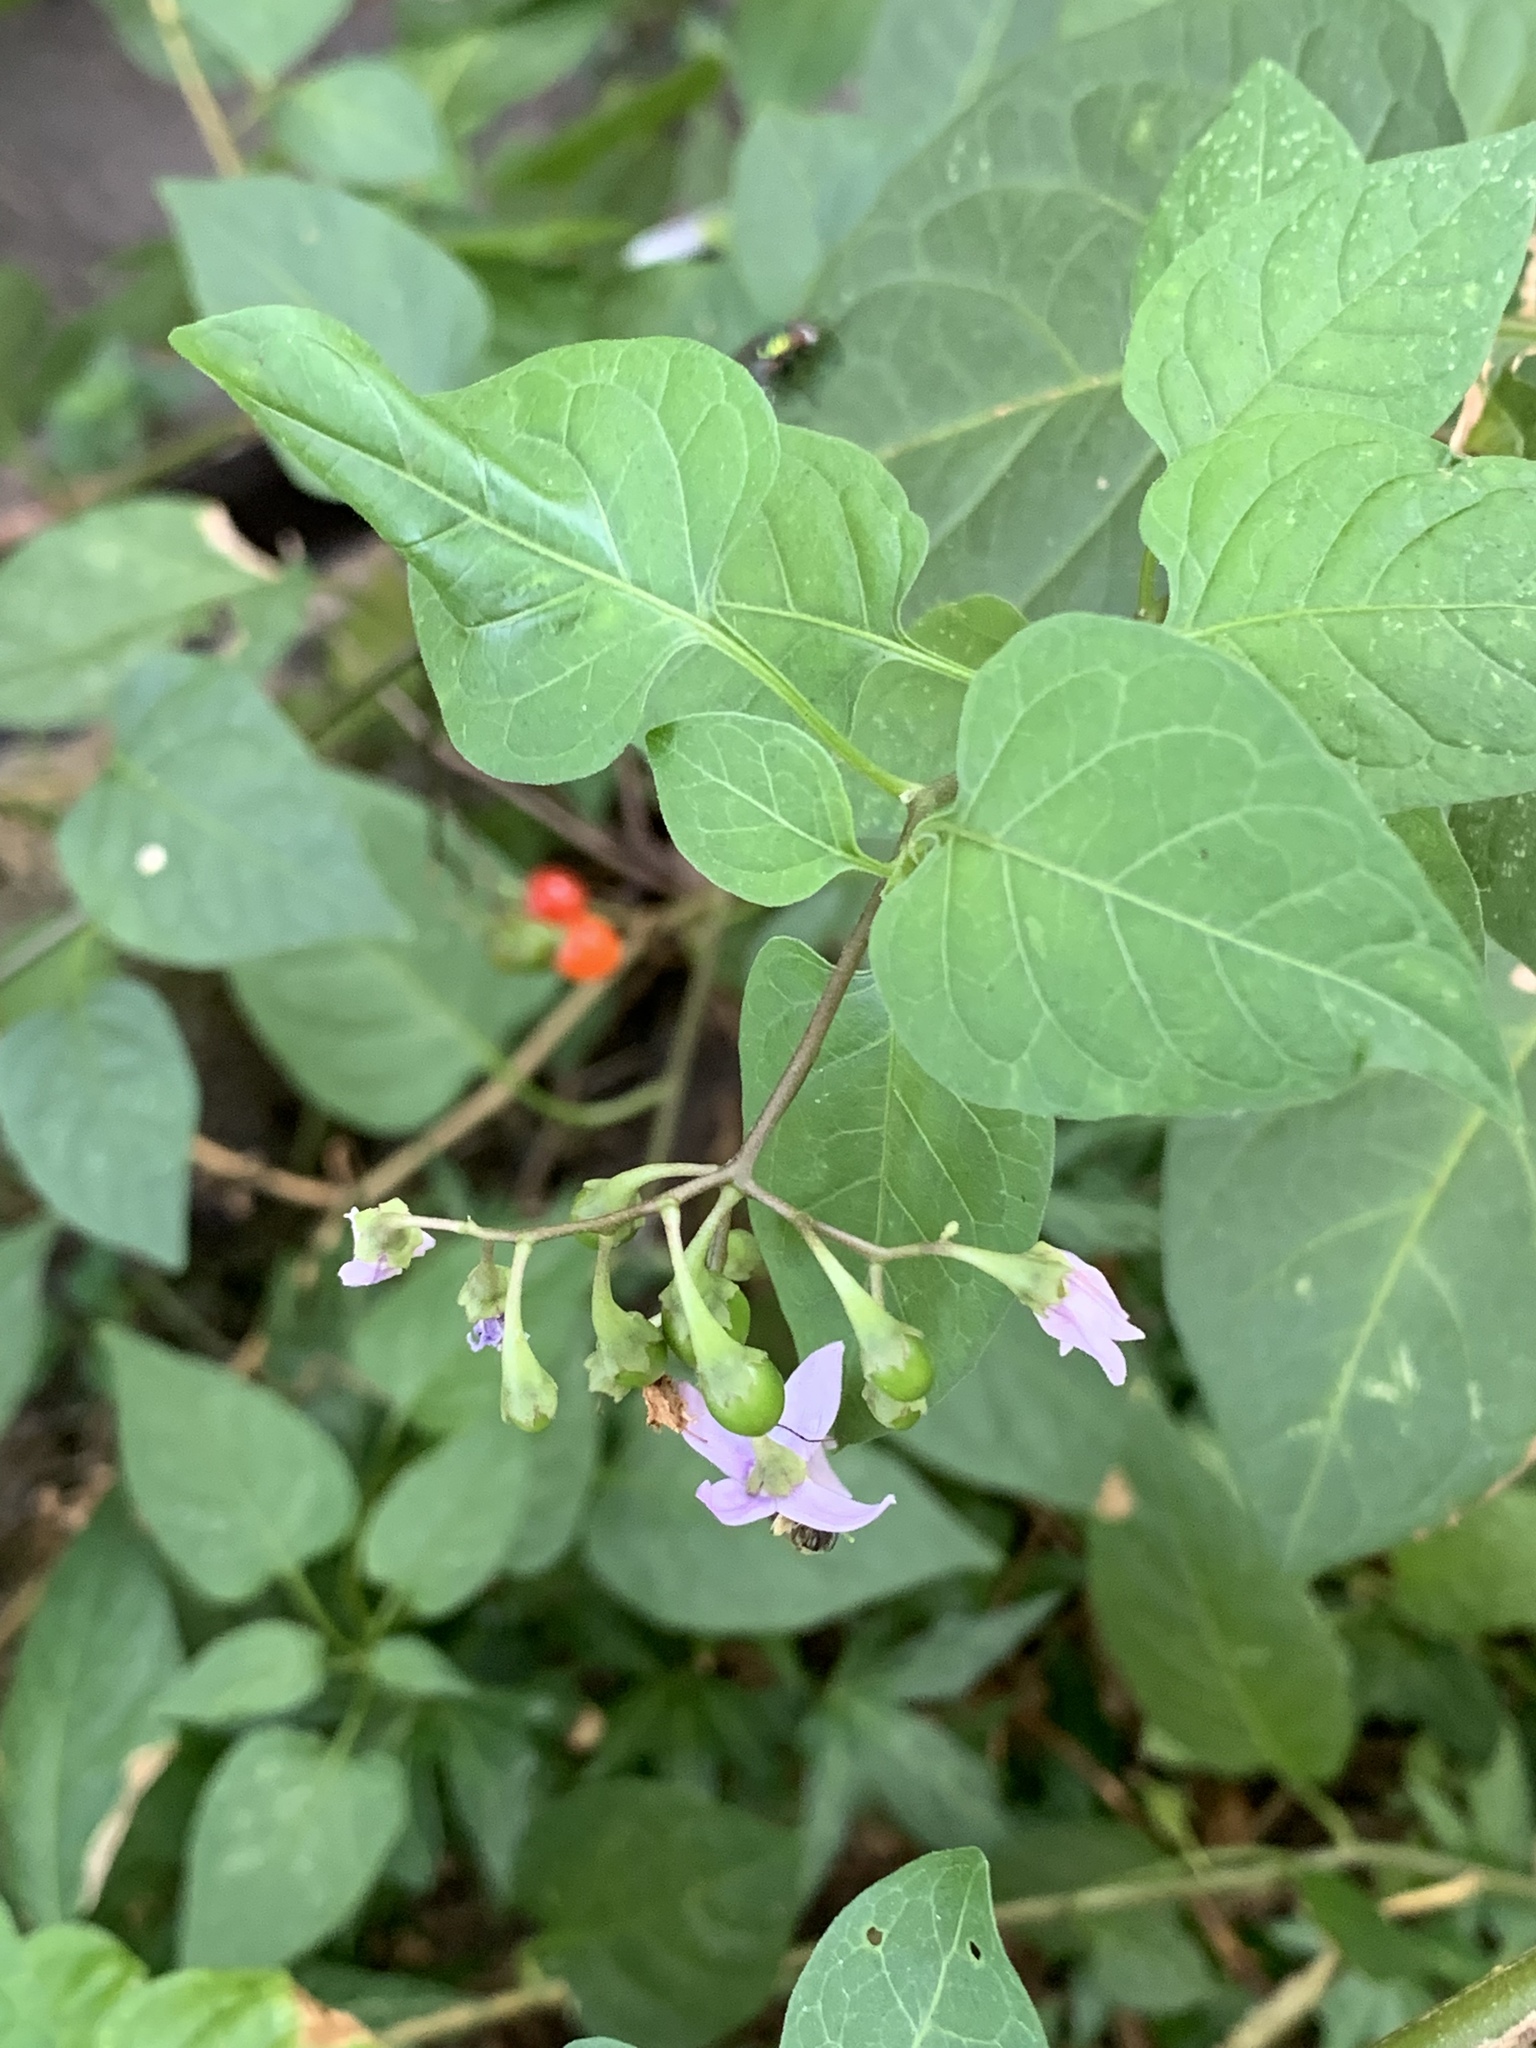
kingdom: Plantae
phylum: Tracheophyta
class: Magnoliopsida
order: Solanales
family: Solanaceae
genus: Solanum
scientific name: Solanum dulcamara
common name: Climbing nightshade
